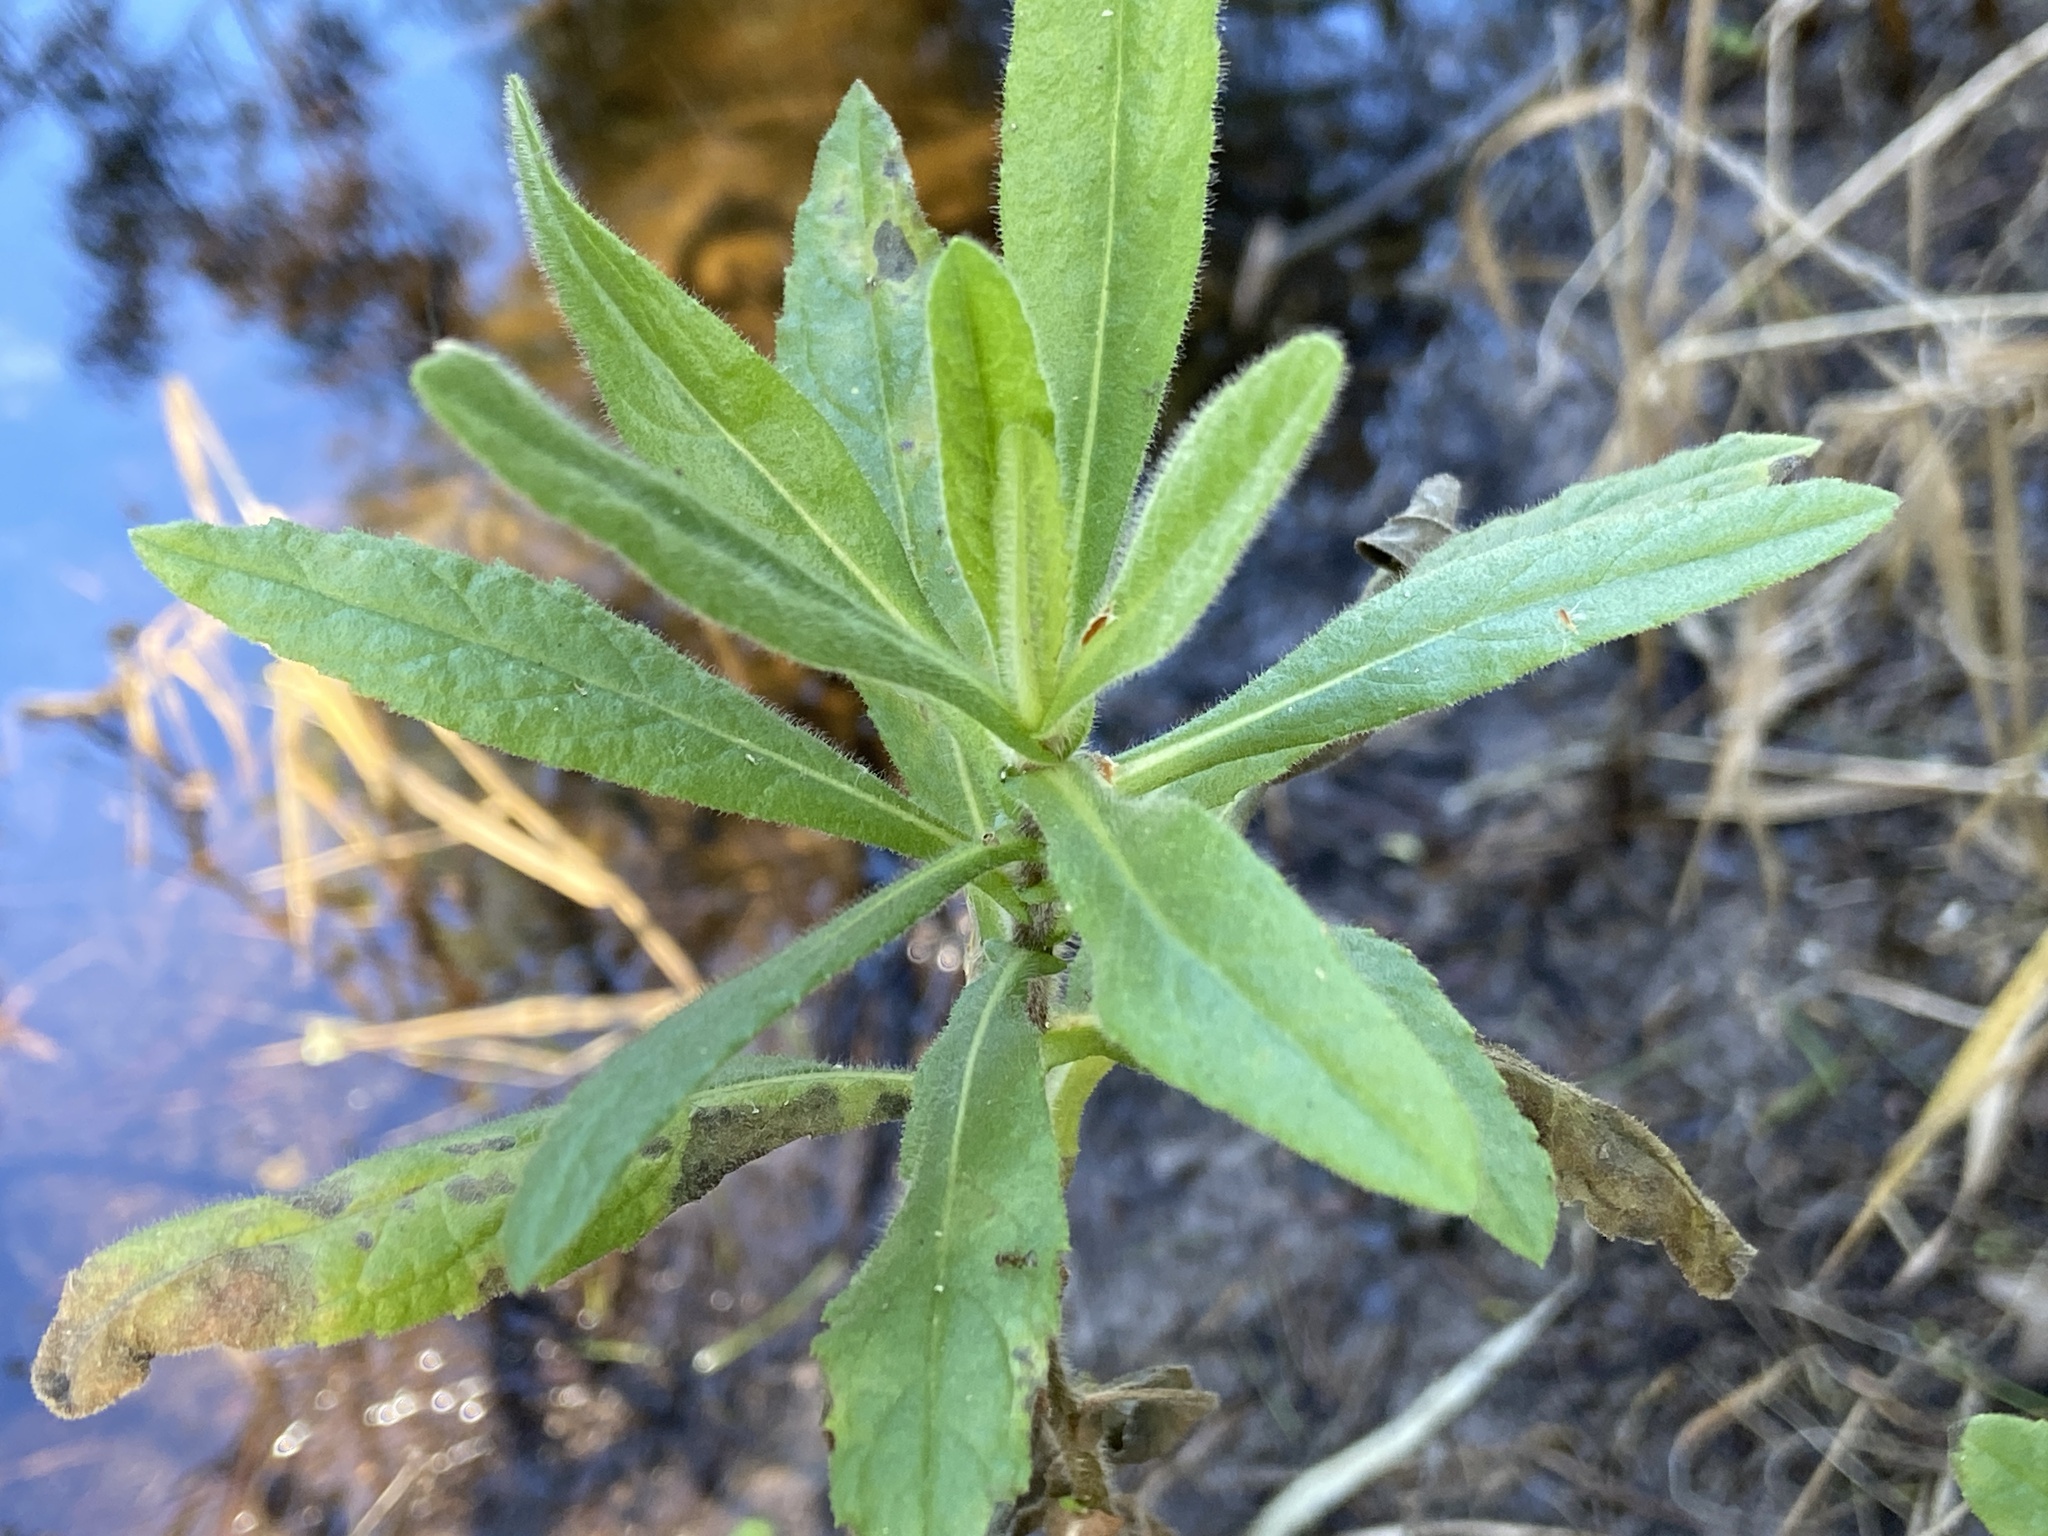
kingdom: Plantae
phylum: Tracheophyta
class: Magnoliopsida
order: Asterales
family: Asteraceae
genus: Dittrichia
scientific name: Dittrichia viscosa
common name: Woody fleabane
